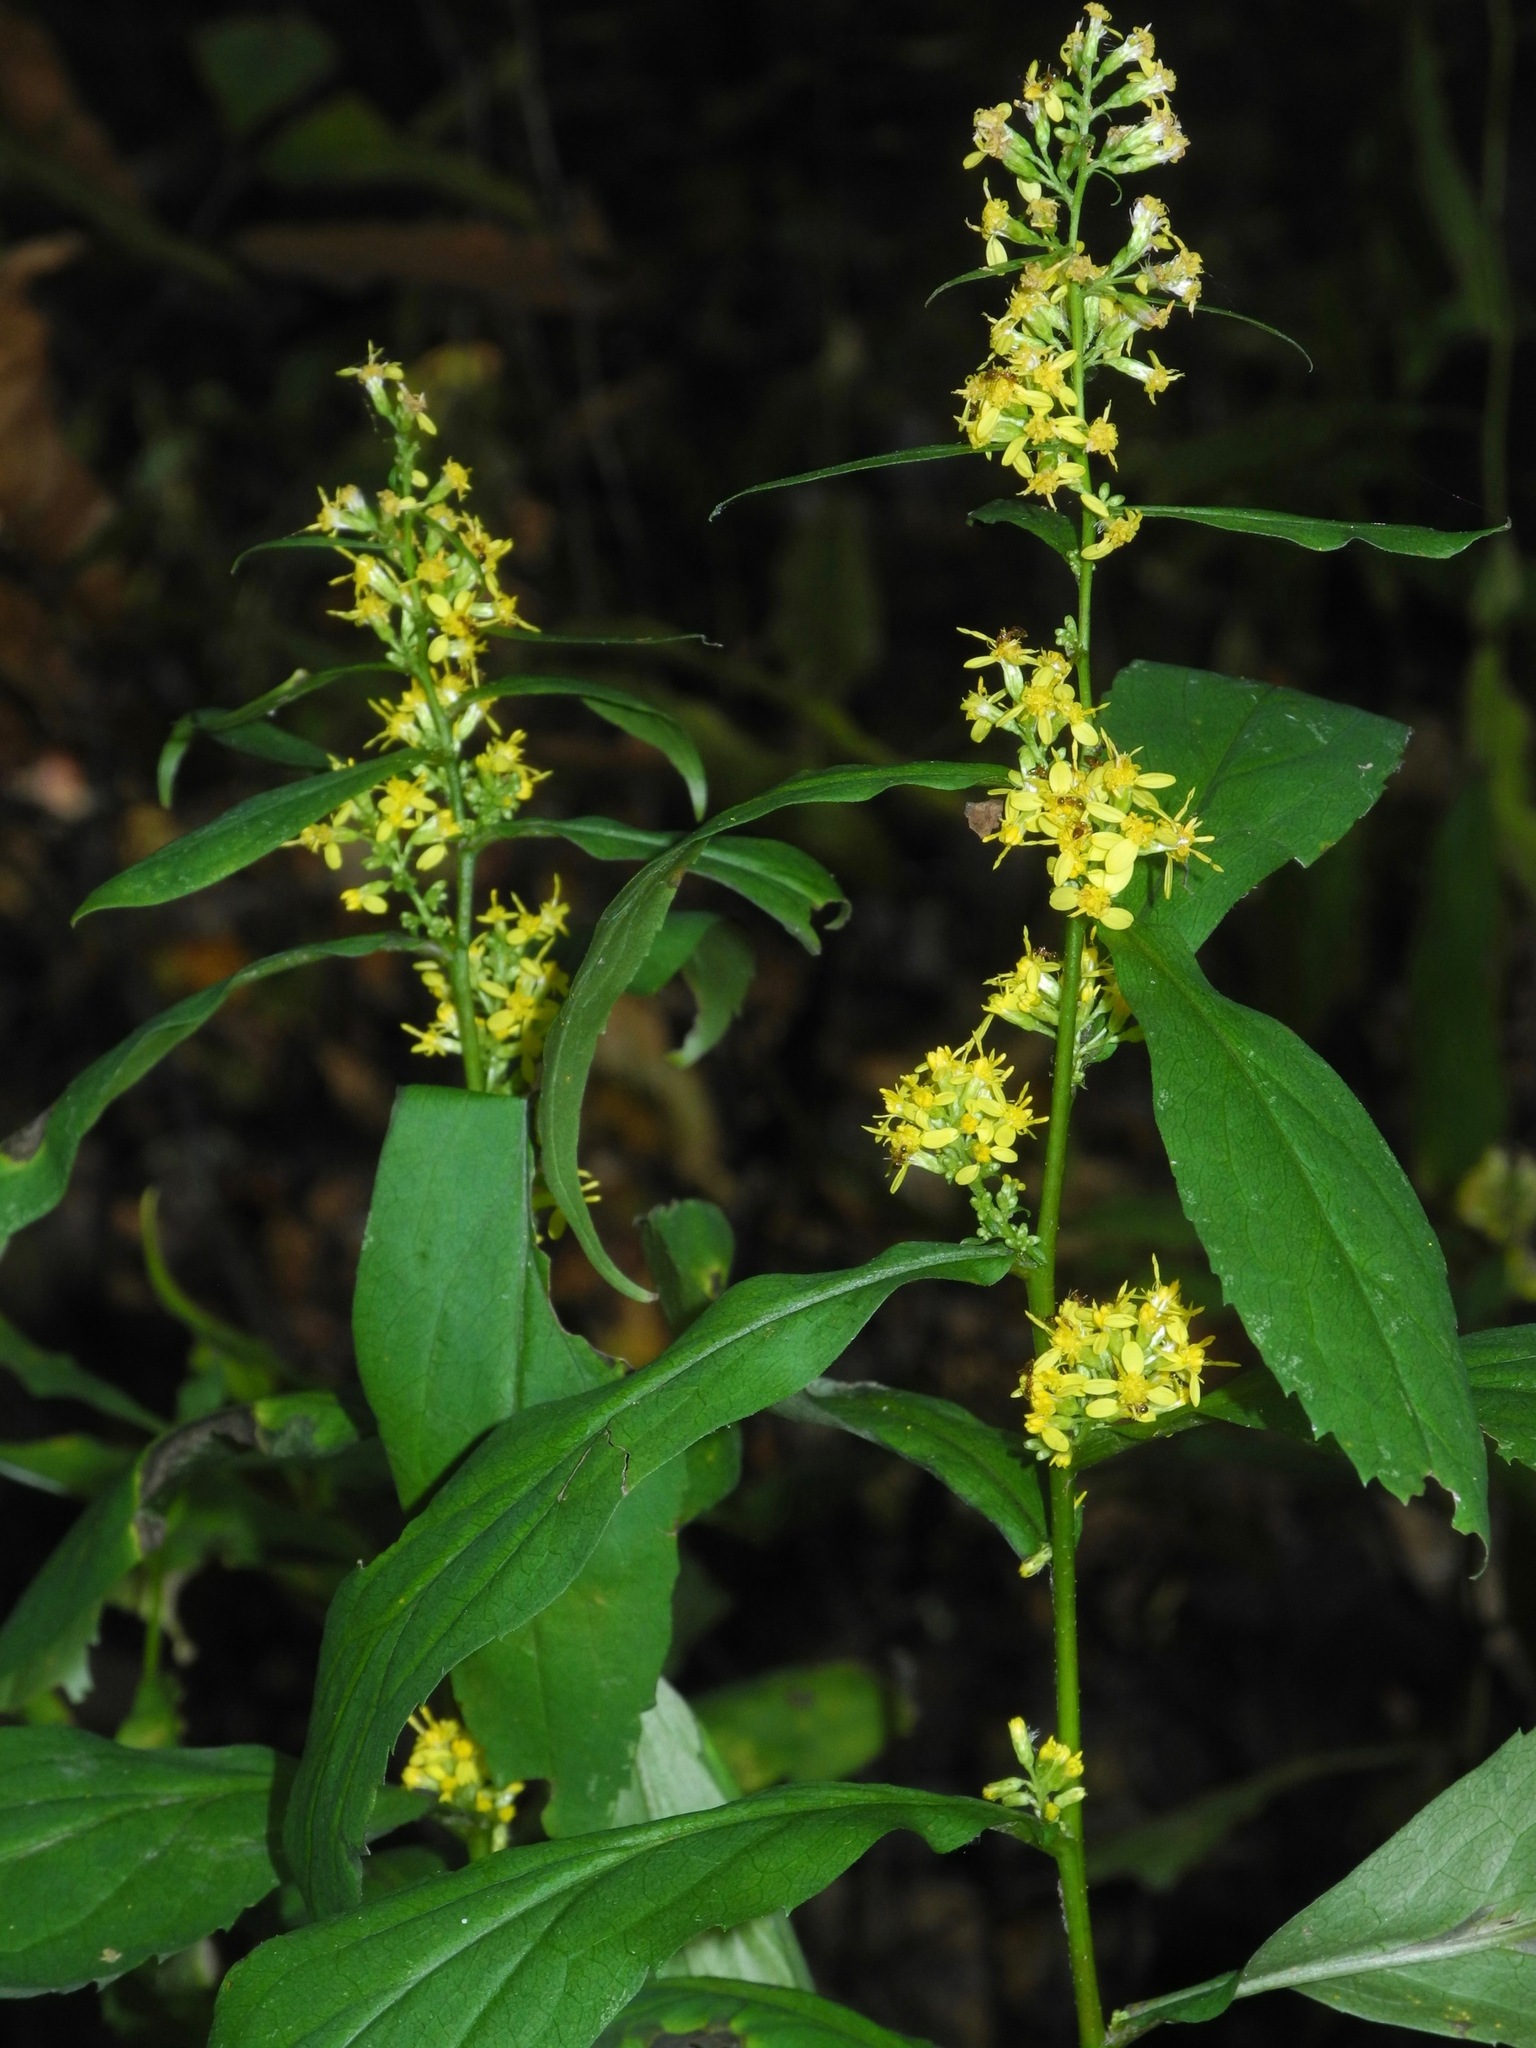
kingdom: Plantae
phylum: Tracheophyta
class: Magnoliopsida
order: Asterales
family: Asteraceae
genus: Solidago
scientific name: Solidago flexicaulis
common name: Zig-zag goldenrod
